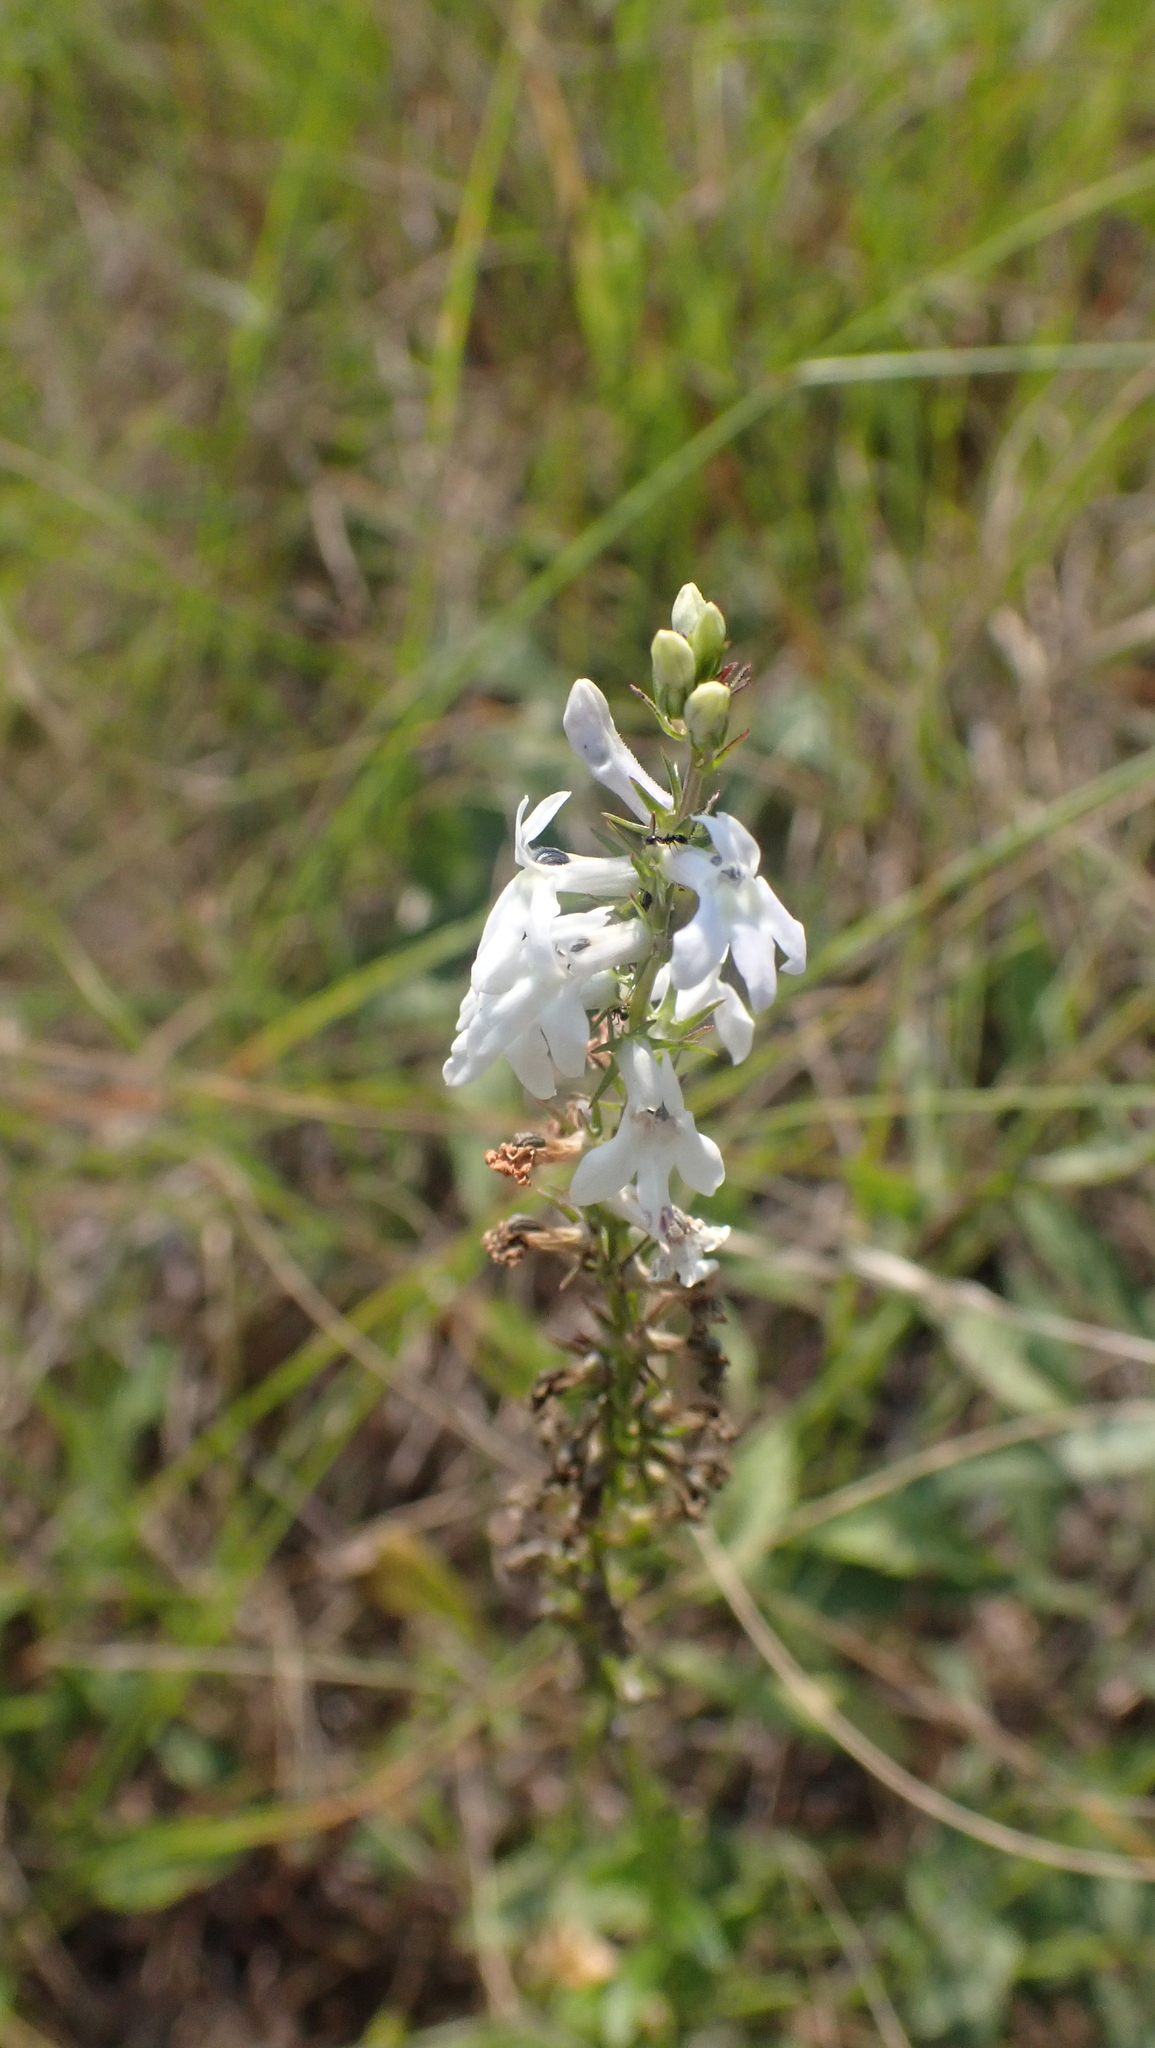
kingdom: Plantae
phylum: Tracheophyta
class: Magnoliopsida
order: Asterales
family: Campanulaceae
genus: Lobelia
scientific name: Lobelia spicata
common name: Pale-spike lobelia
